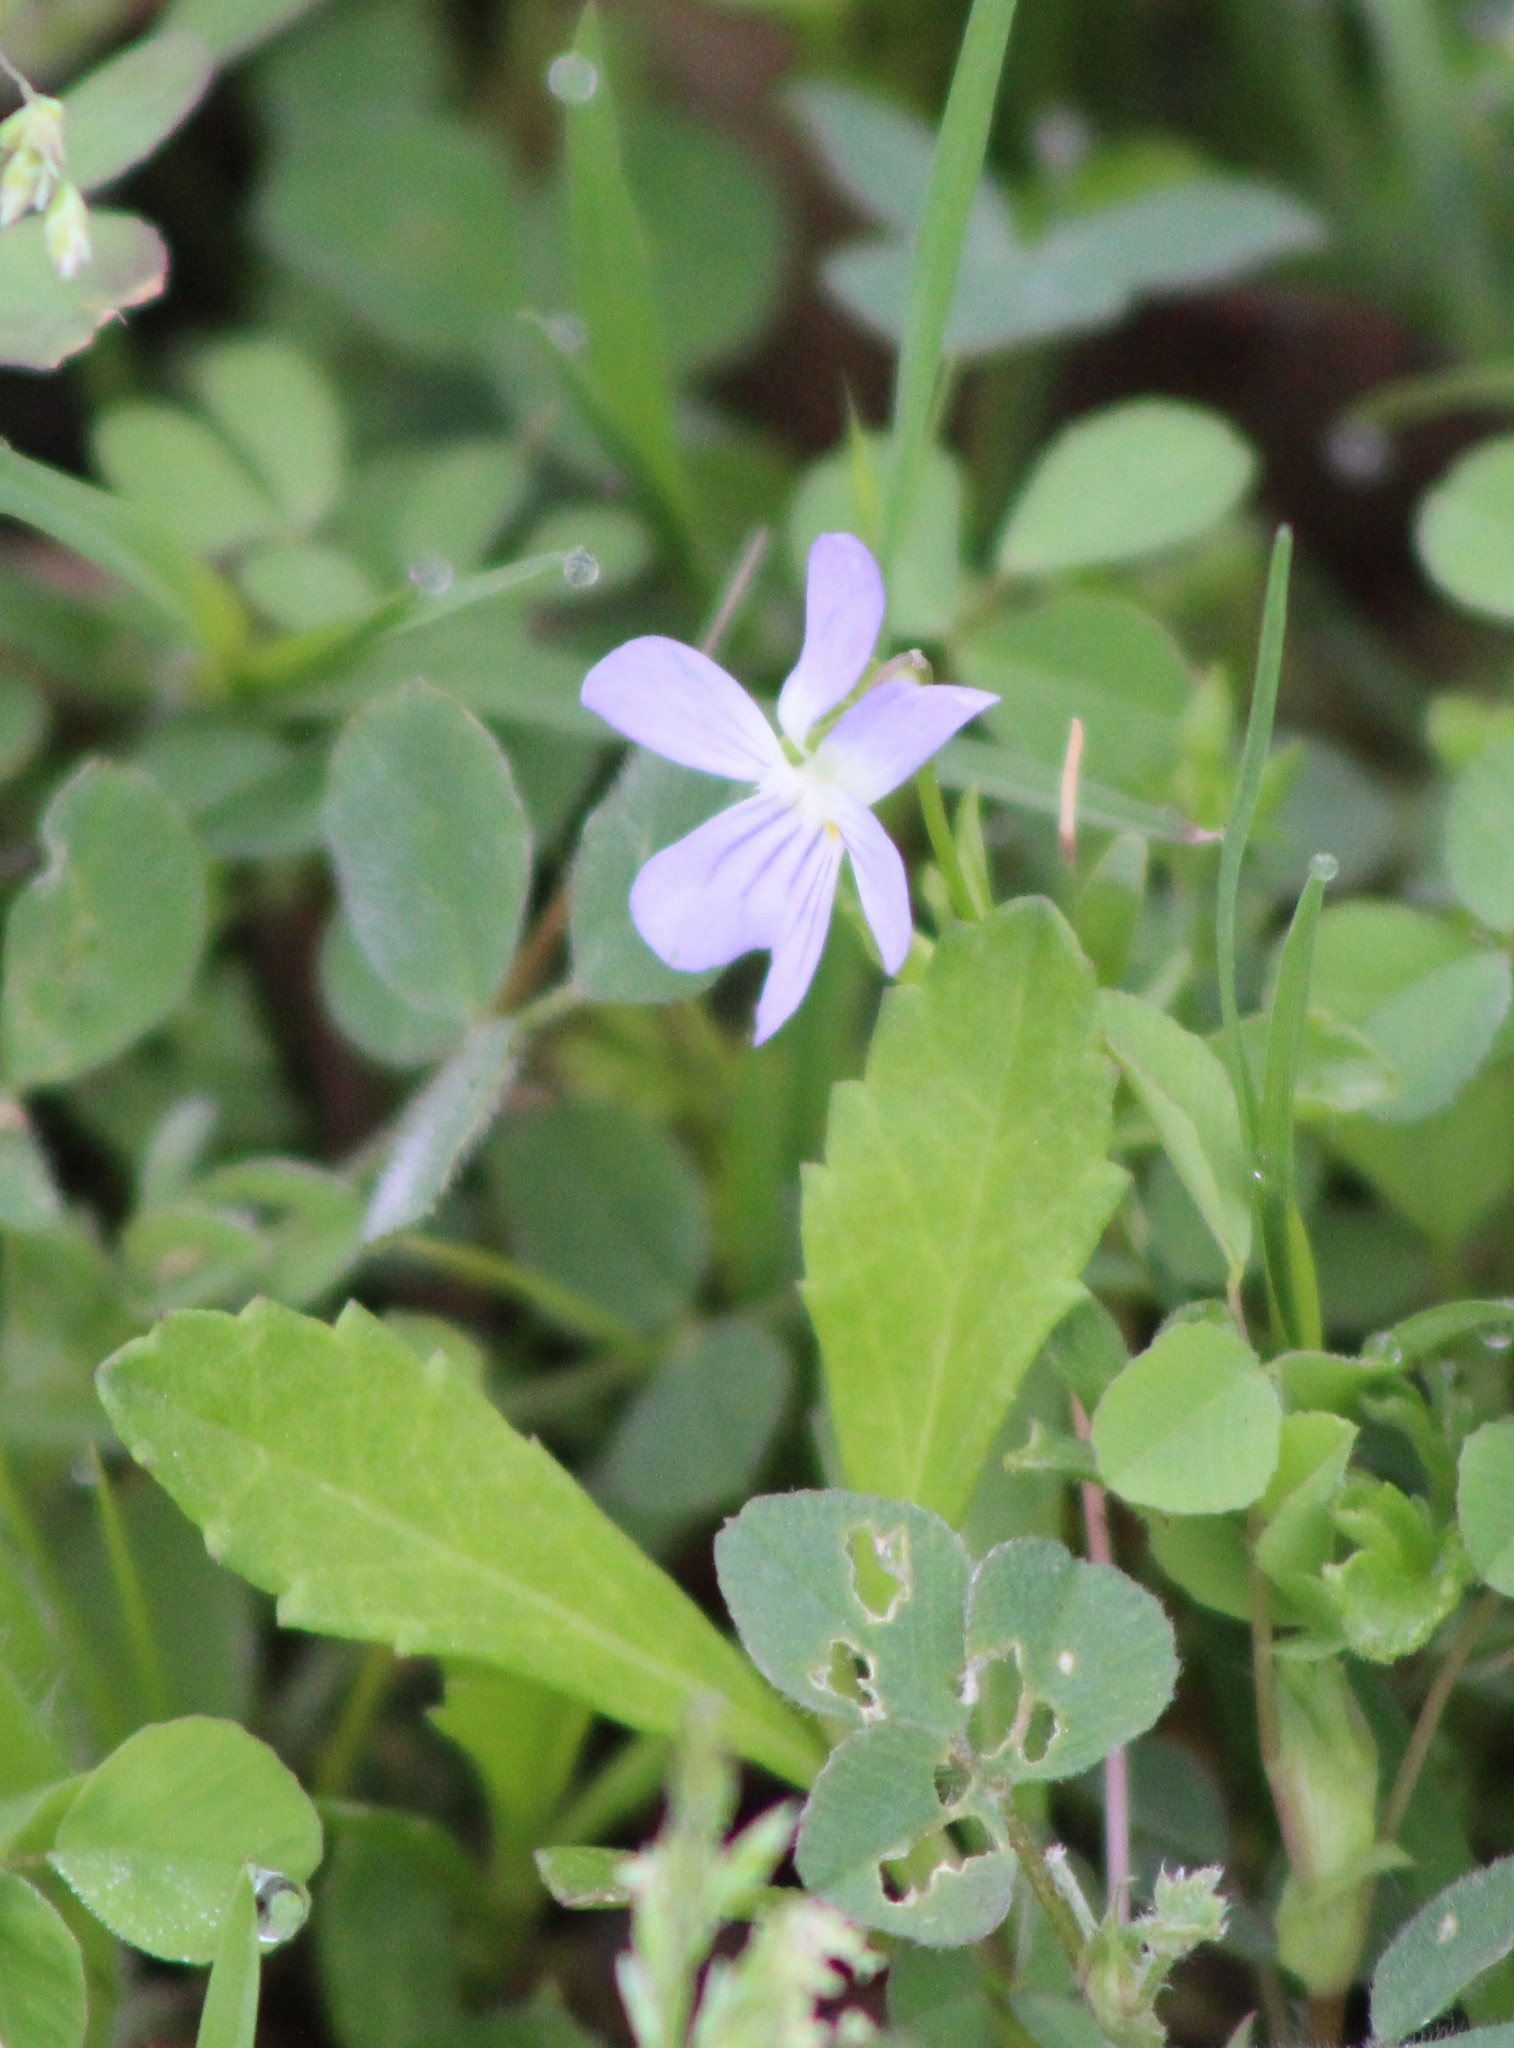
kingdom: Plantae
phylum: Tracheophyta
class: Magnoliopsida
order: Malpighiales
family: Violaceae
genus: Viola
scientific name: Viola rafinesquei
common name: American field pansy
